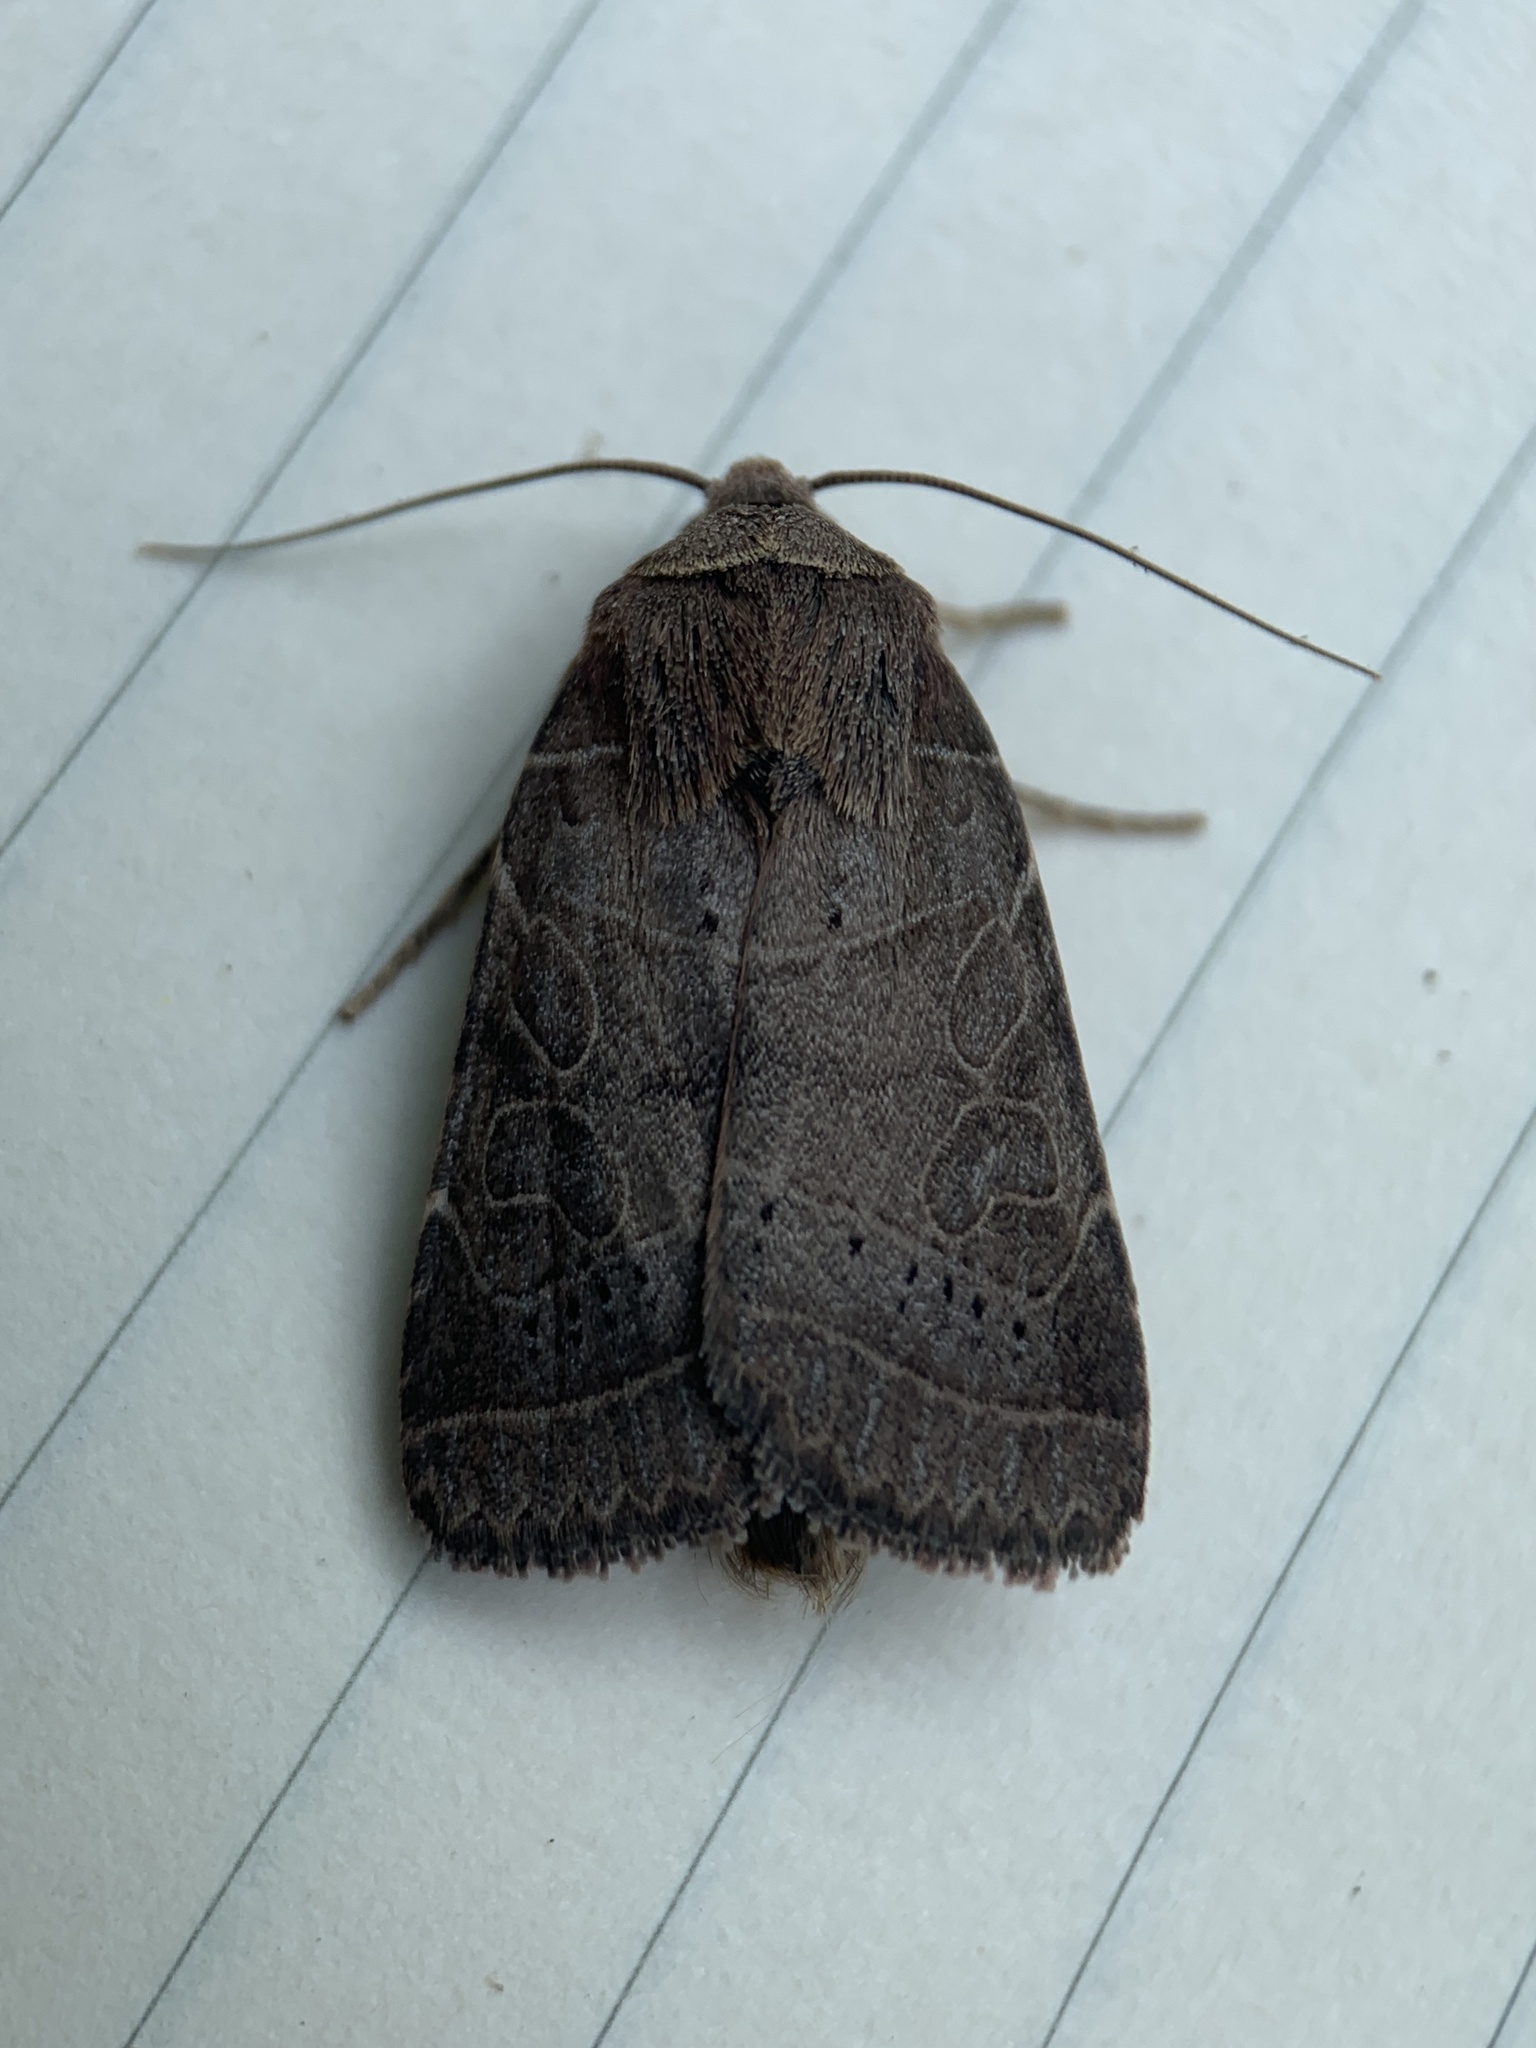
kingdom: Animalia
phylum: Arthropoda
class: Insecta
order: Lepidoptera
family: Noctuidae
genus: Orthodes
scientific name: Orthodes majuscula
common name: Rustic quaker
